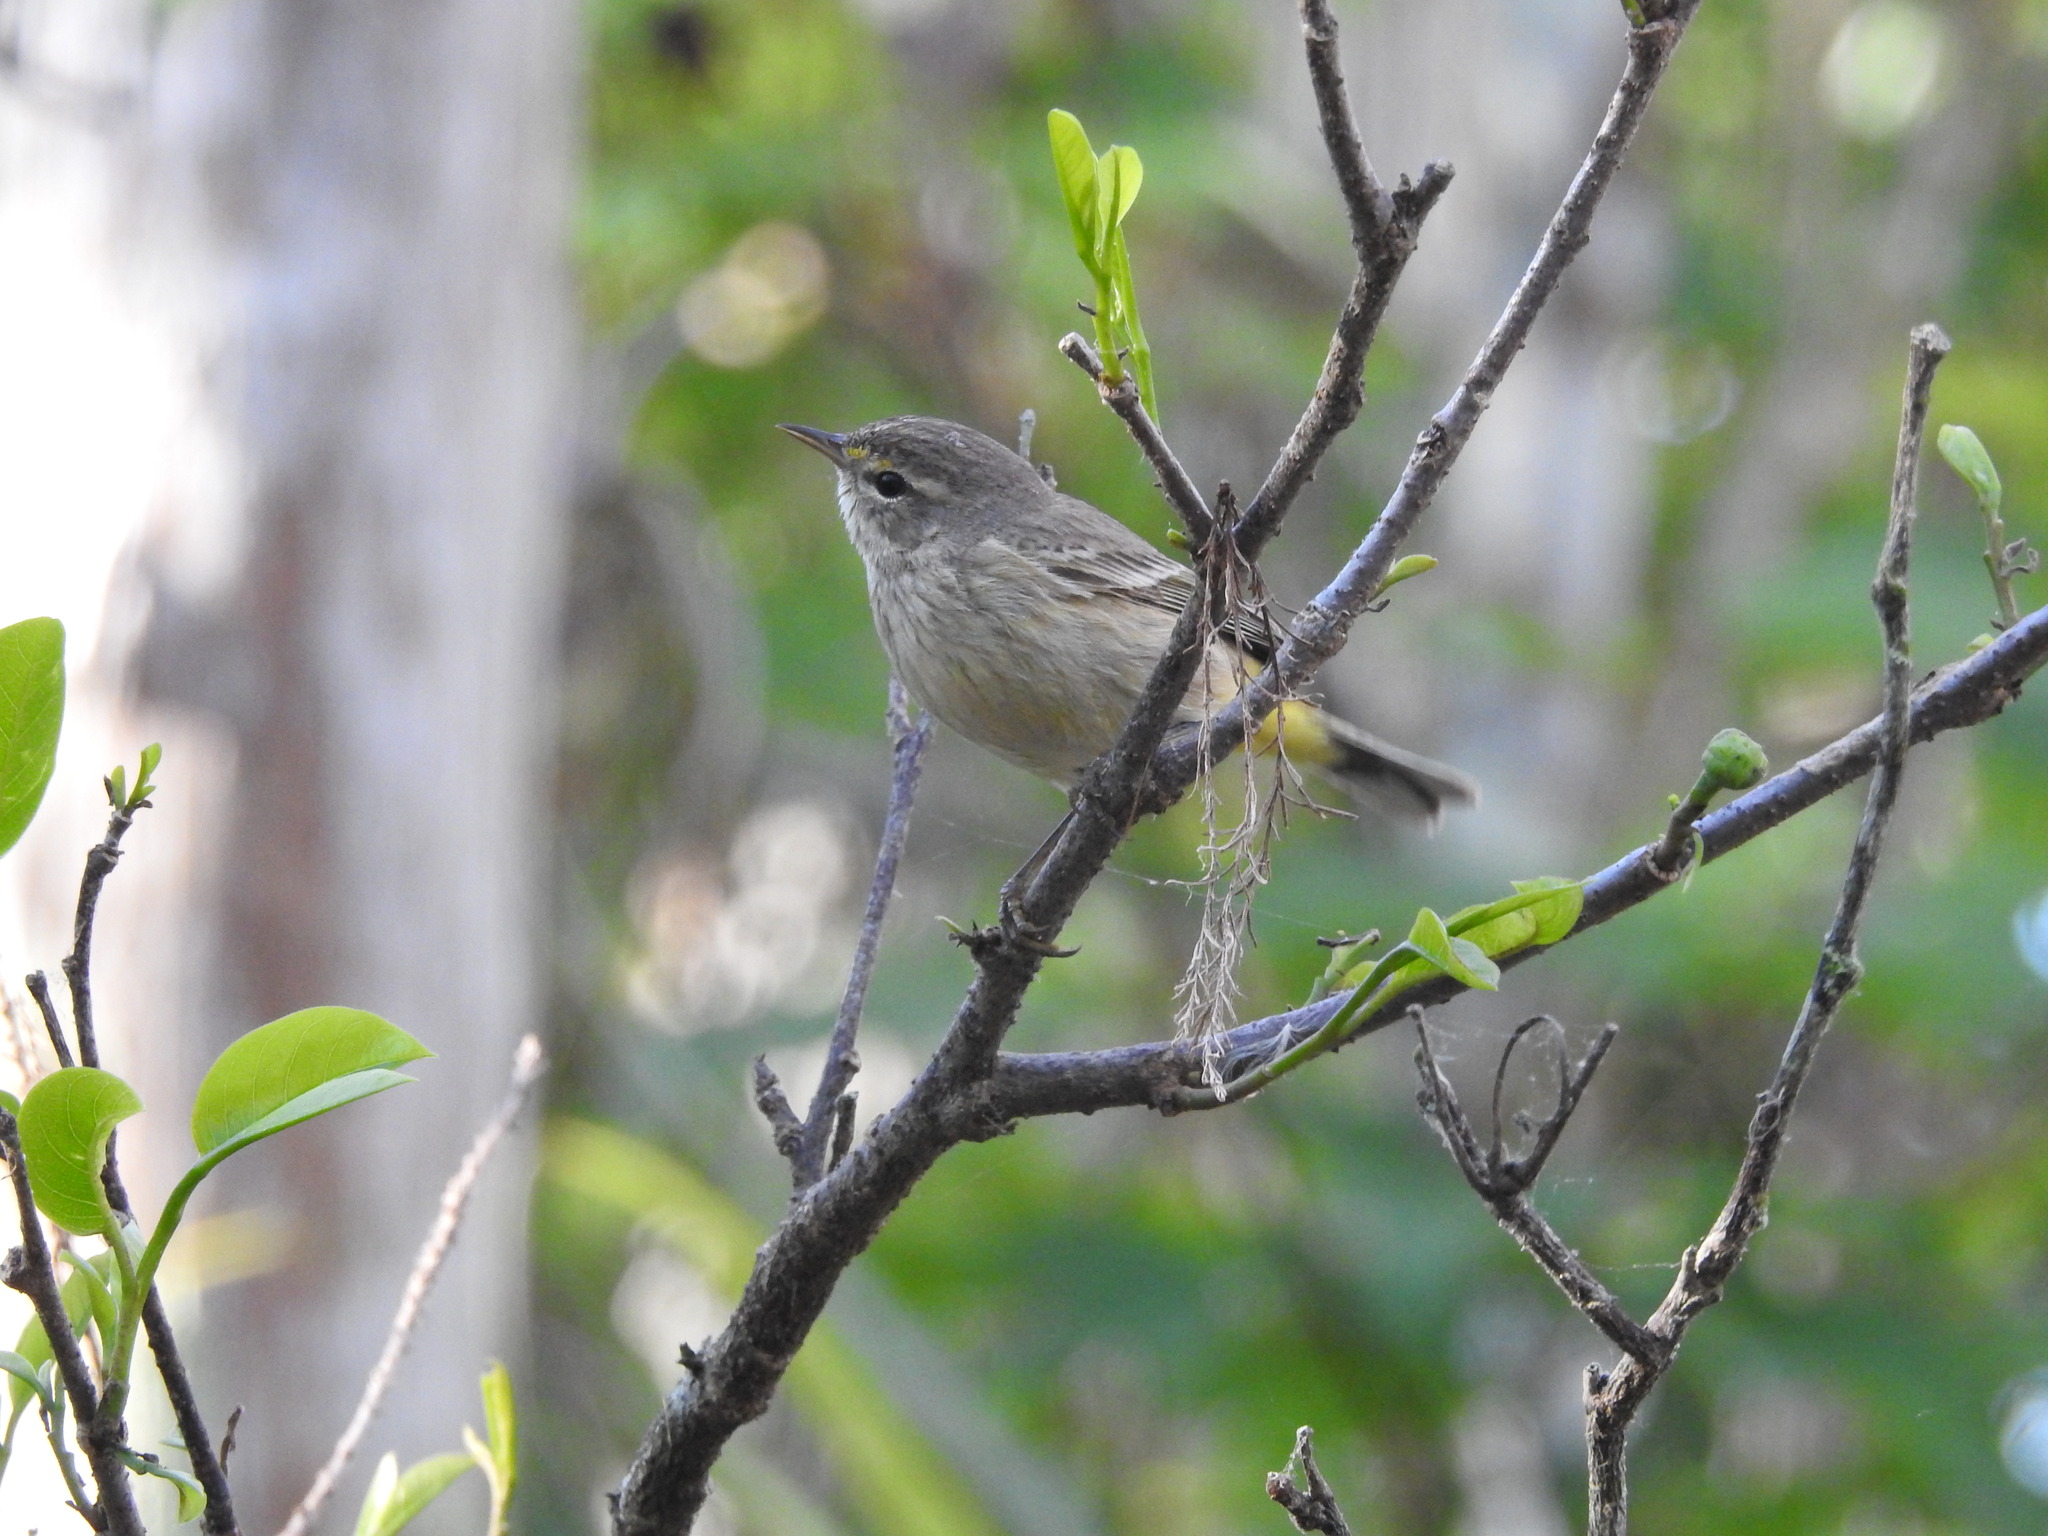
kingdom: Animalia
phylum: Chordata
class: Aves
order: Passeriformes
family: Parulidae
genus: Setophaga
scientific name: Setophaga palmarum
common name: Palm warbler
